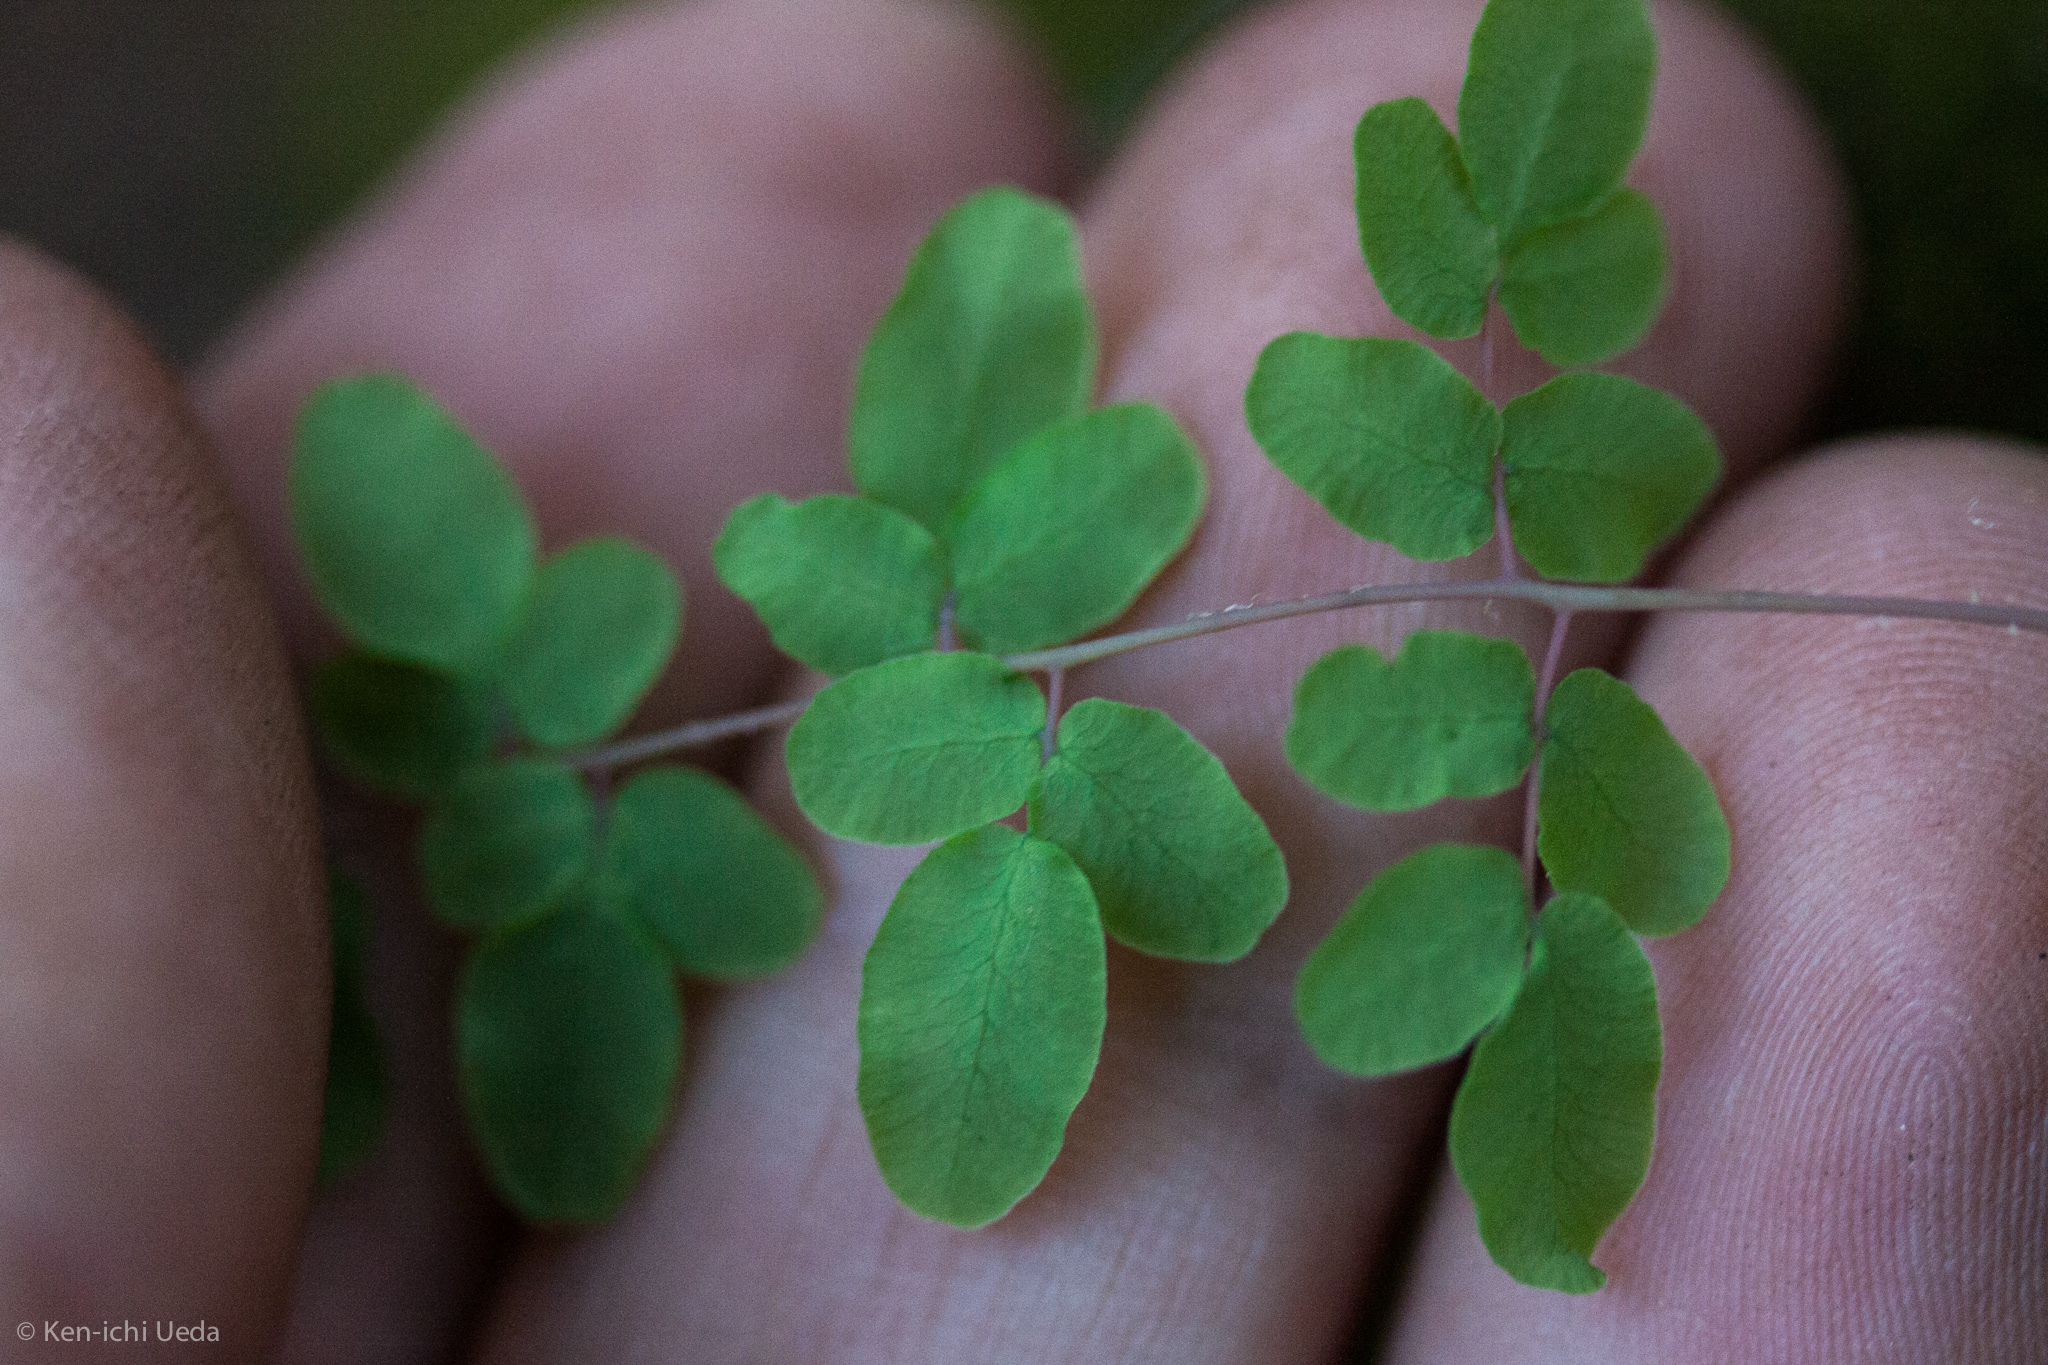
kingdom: Plantae
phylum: Tracheophyta
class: Polypodiopsida
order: Polypodiales
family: Pteridaceae
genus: Pellaea
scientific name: Pellaea andromedifolia
